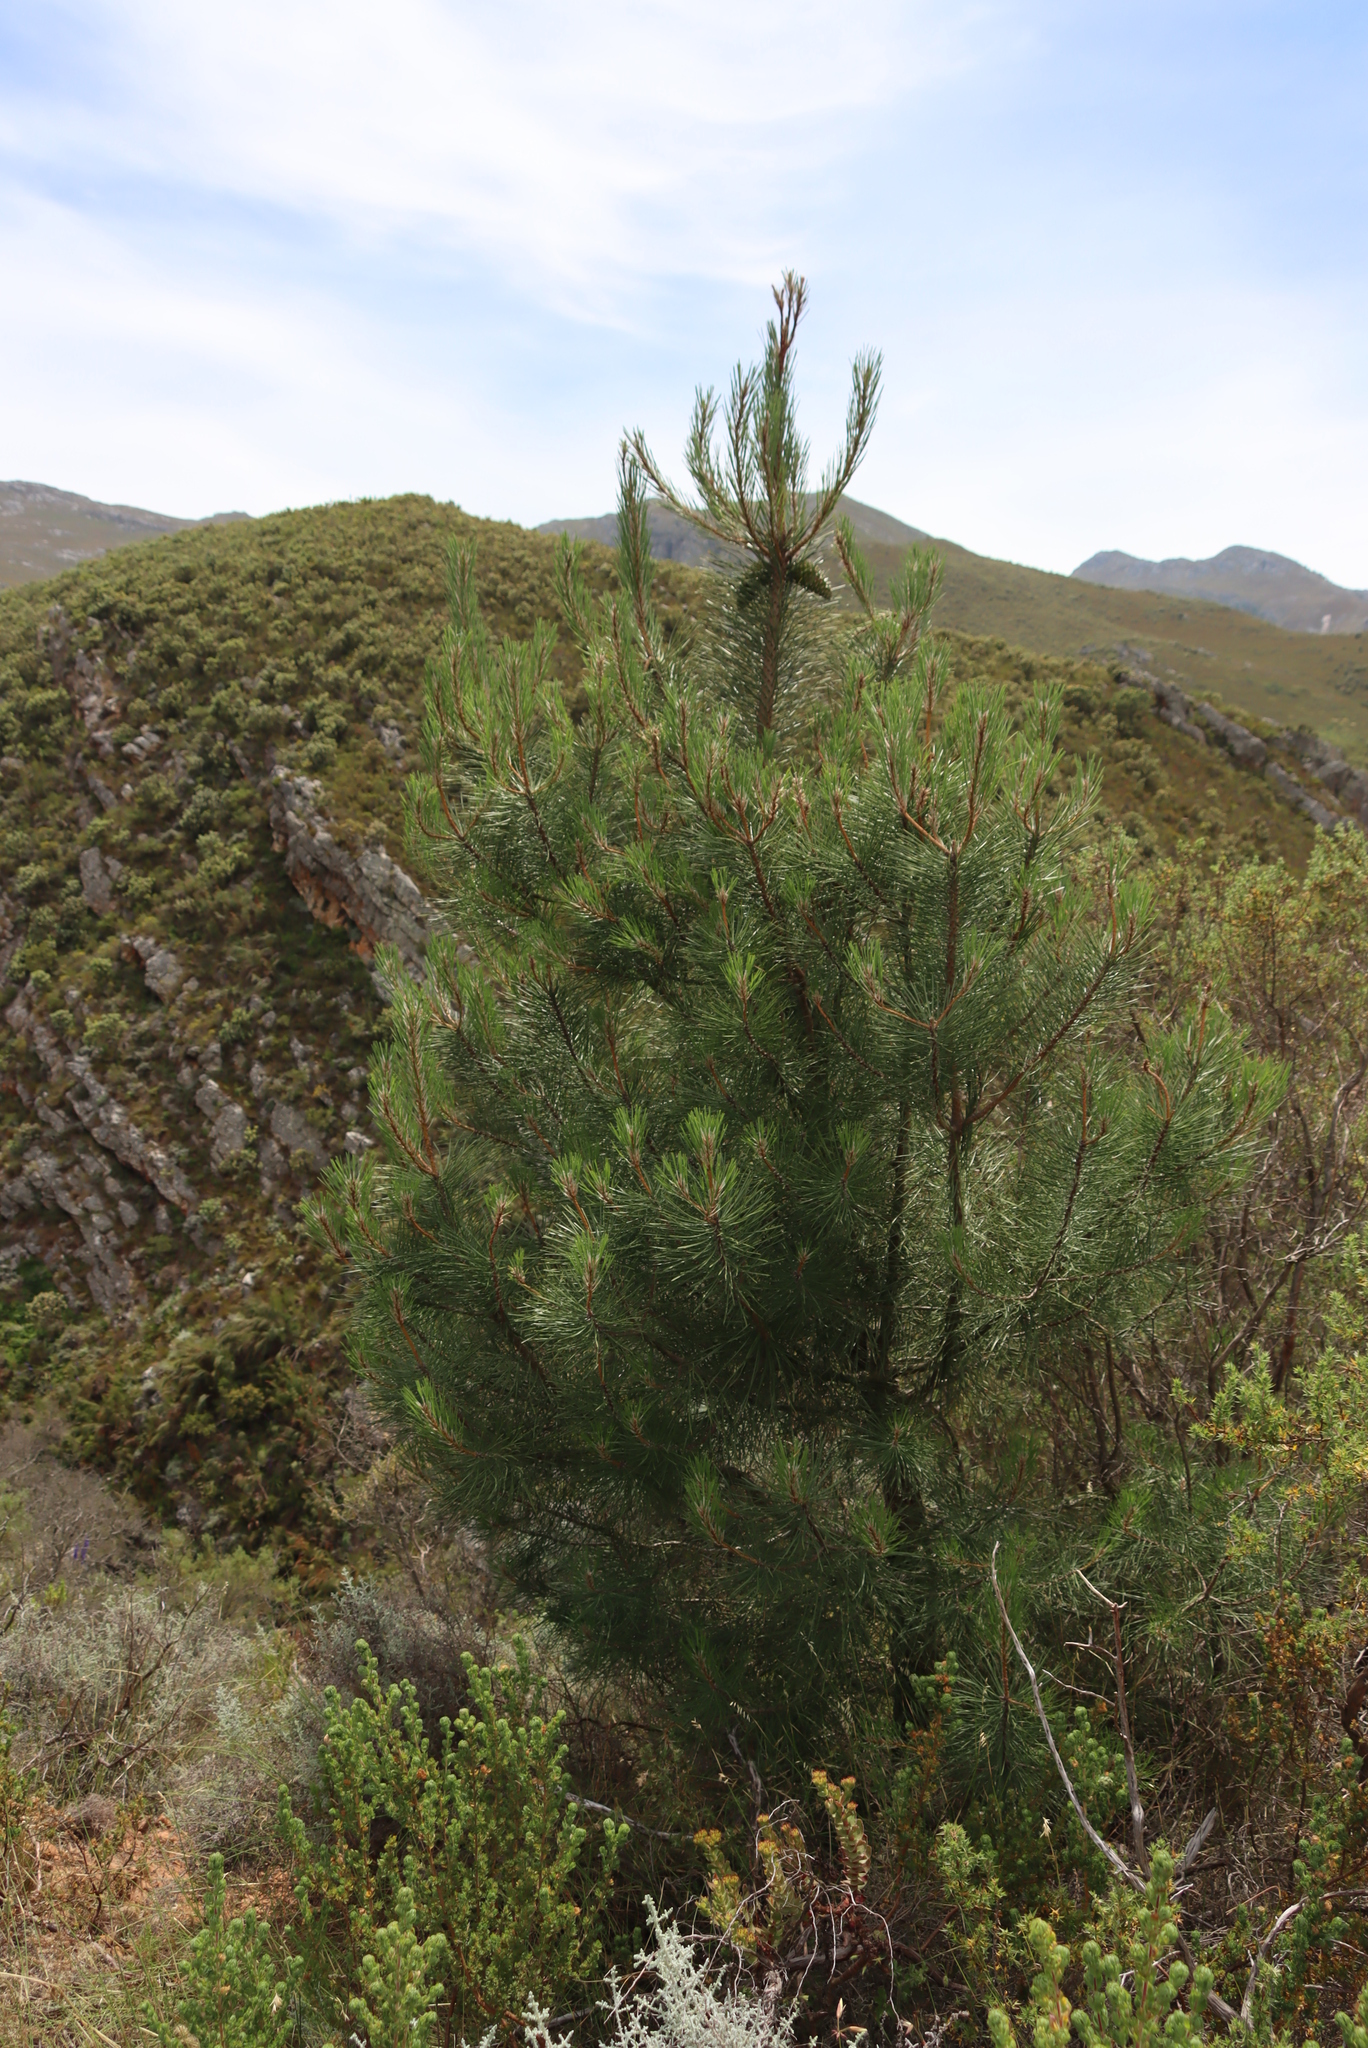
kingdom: Plantae
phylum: Tracheophyta
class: Pinopsida
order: Pinales
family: Pinaceae
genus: Pinus
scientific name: Pinus pinaster
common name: Maritime pine
